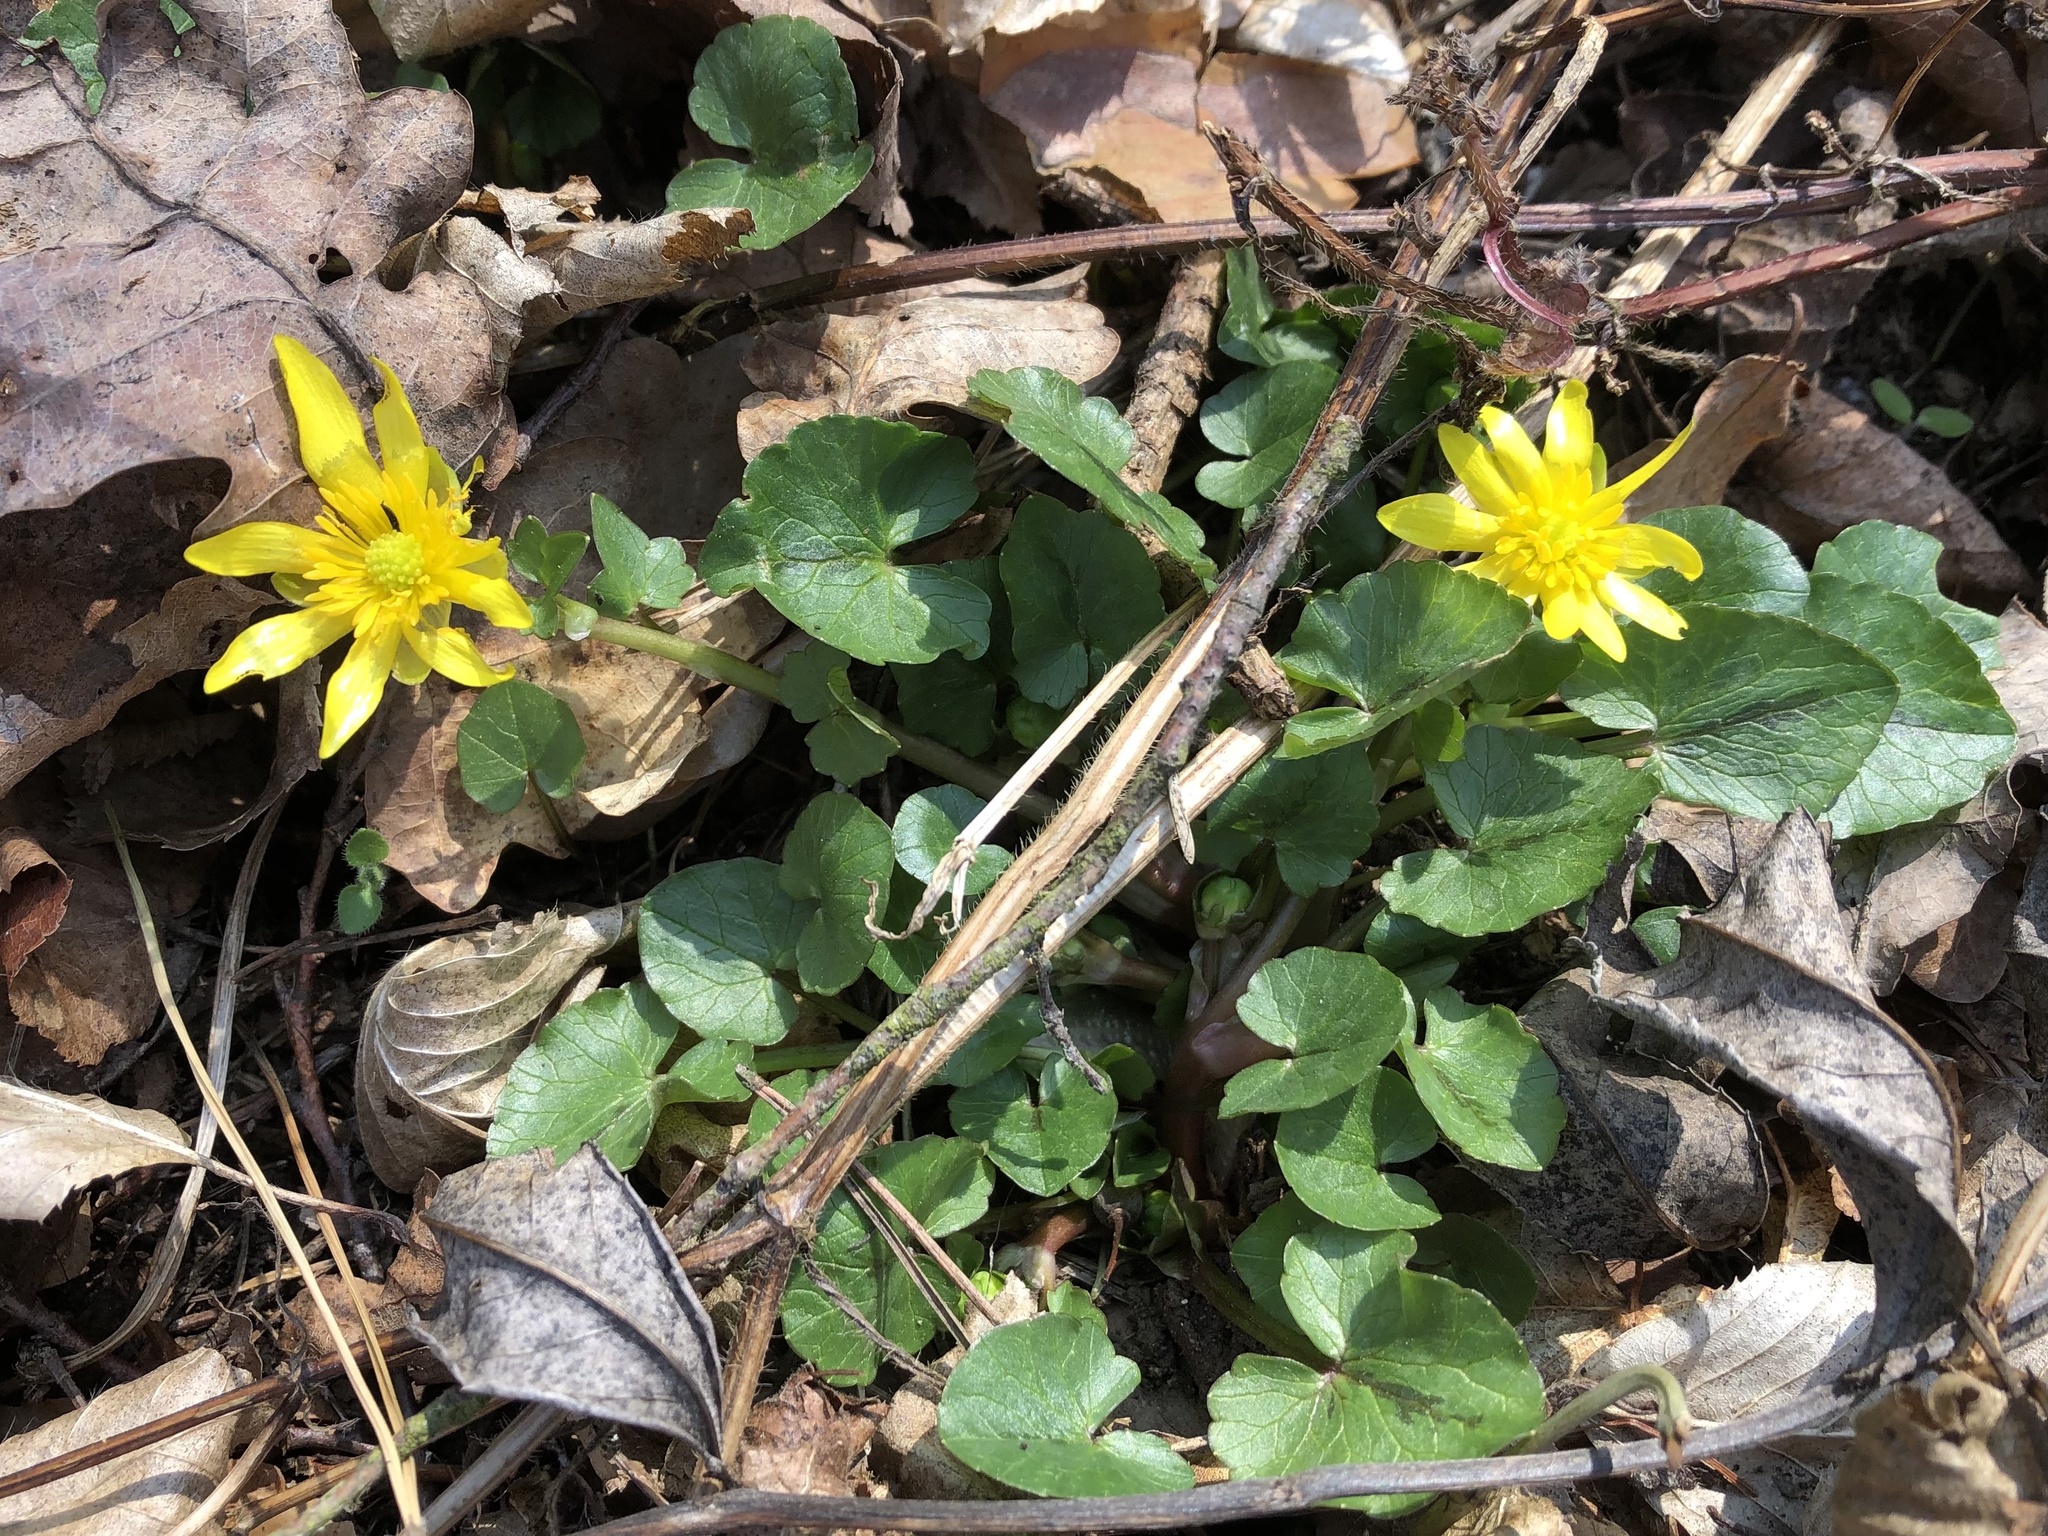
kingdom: Plantae
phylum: Tracheophyta
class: Magnoliopsida
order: Ranunculales
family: Ranunculaceae
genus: Ficaria
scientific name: Ficaria verna
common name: Lesser celandine
